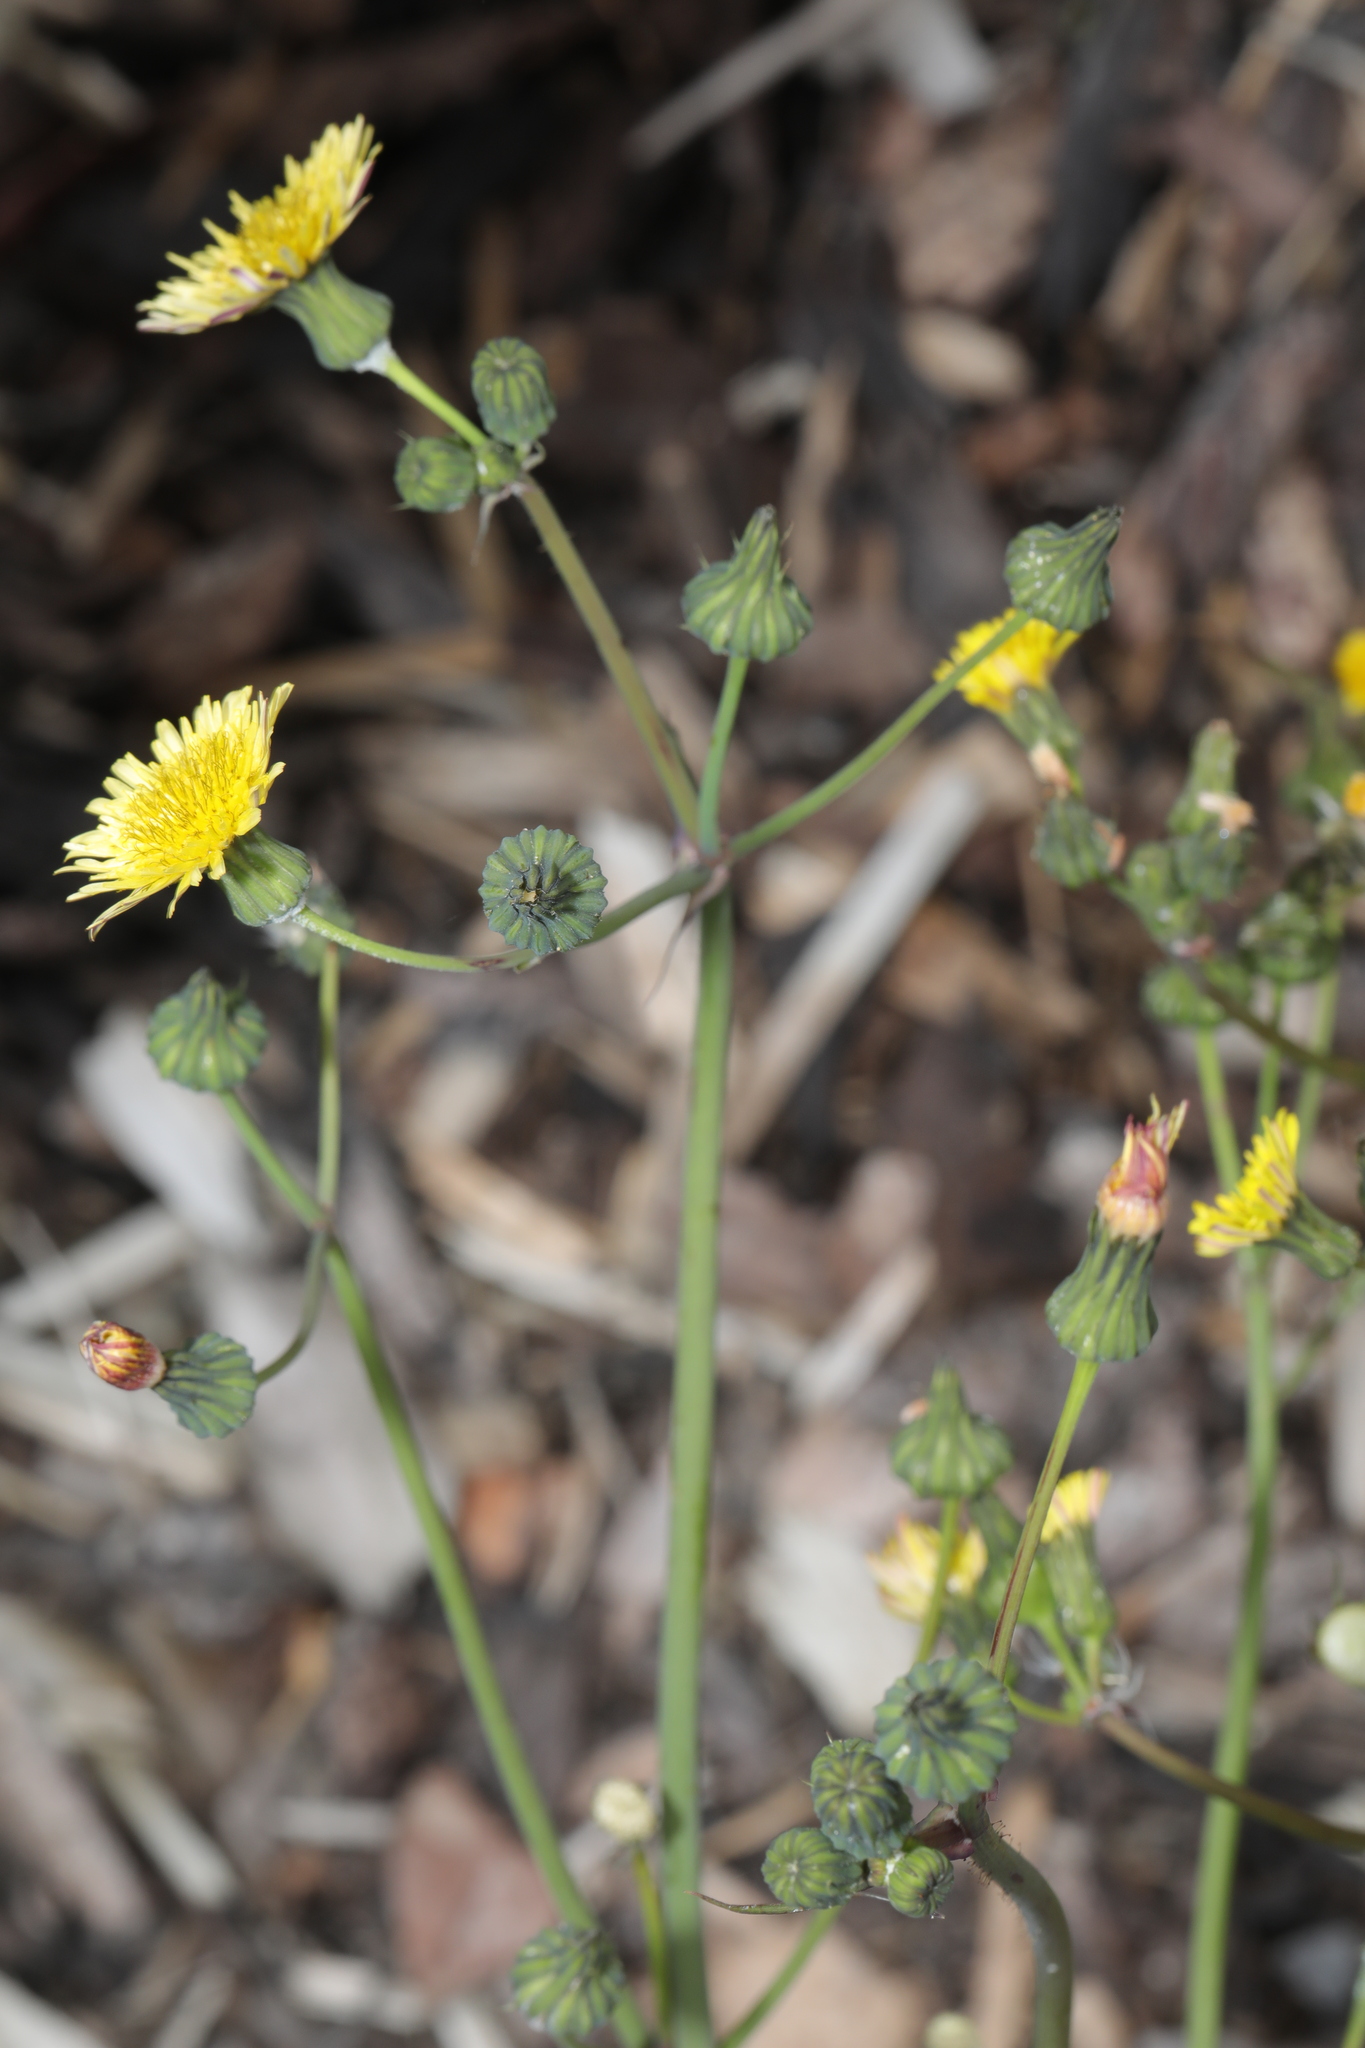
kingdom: Plantae
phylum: Tracheophyta
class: Magnoliopsida
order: Asterales
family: Asteraceae
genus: Sonchus
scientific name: Sonchus oleraceus
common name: Common sowthistle
